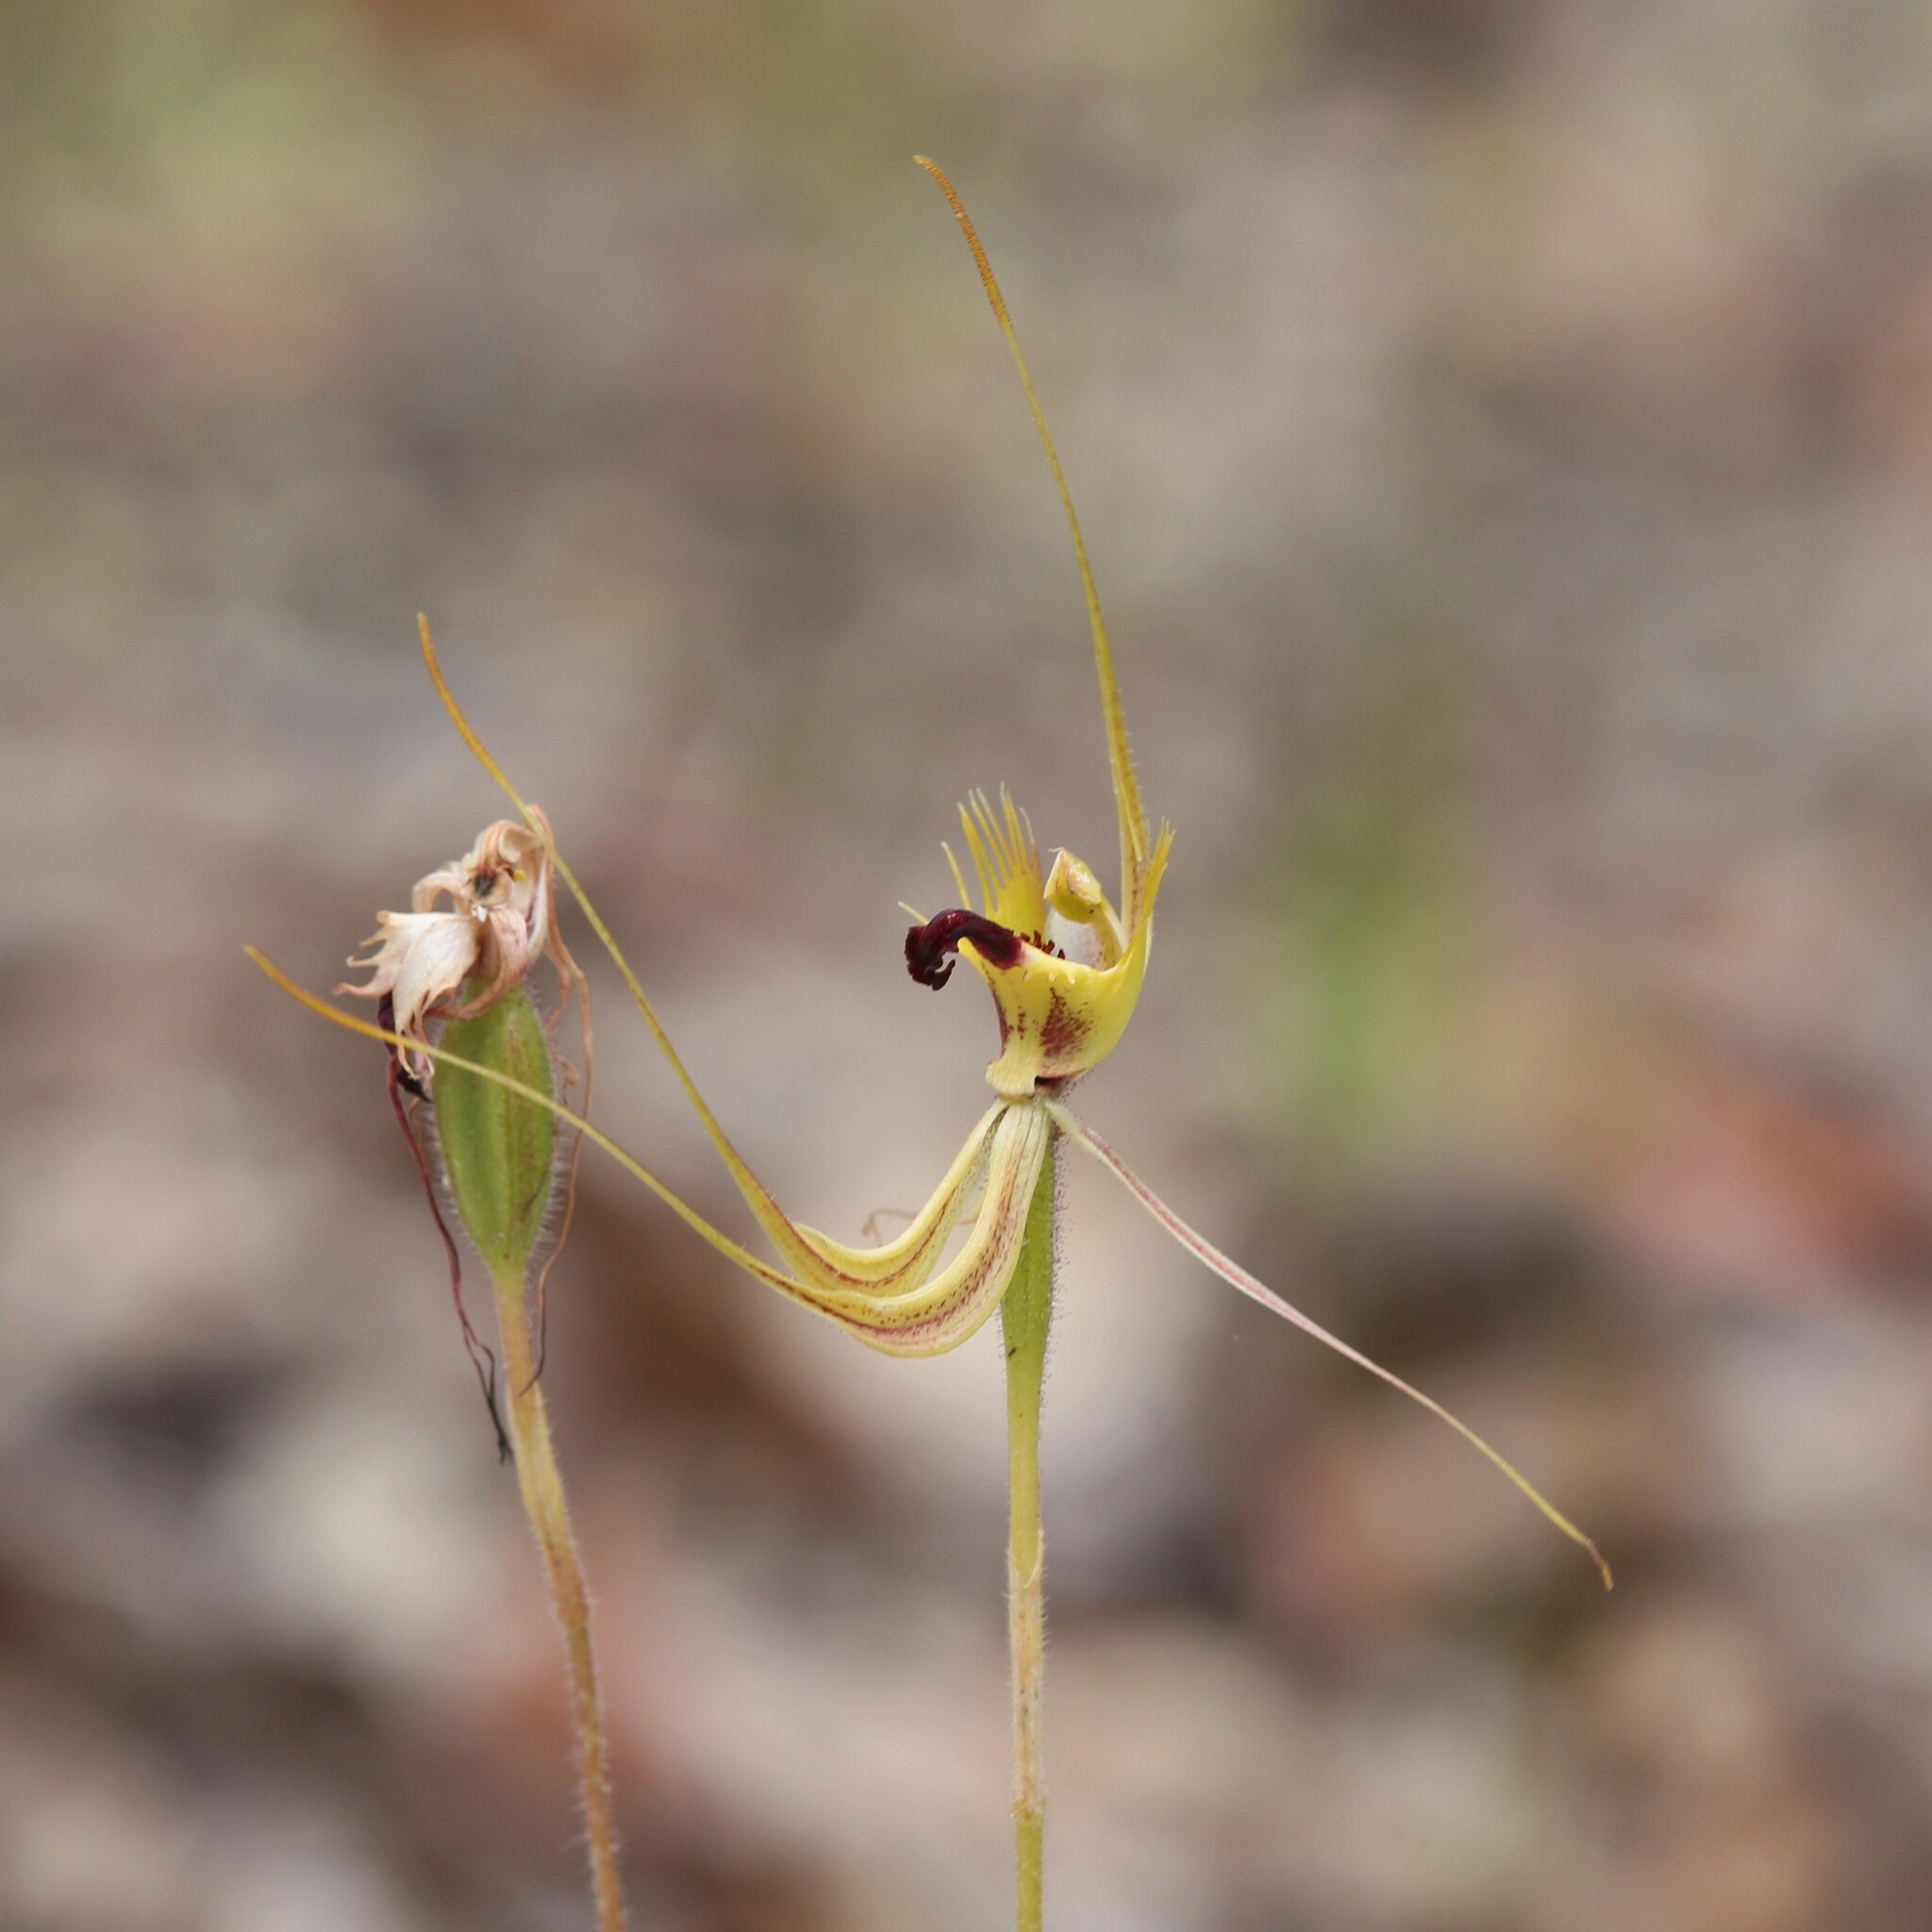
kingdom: Plantae
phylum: Tracheophyta
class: Liliopsida
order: Asparagales
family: Orchidaceae
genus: Caladenia
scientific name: Caladenia attingens
